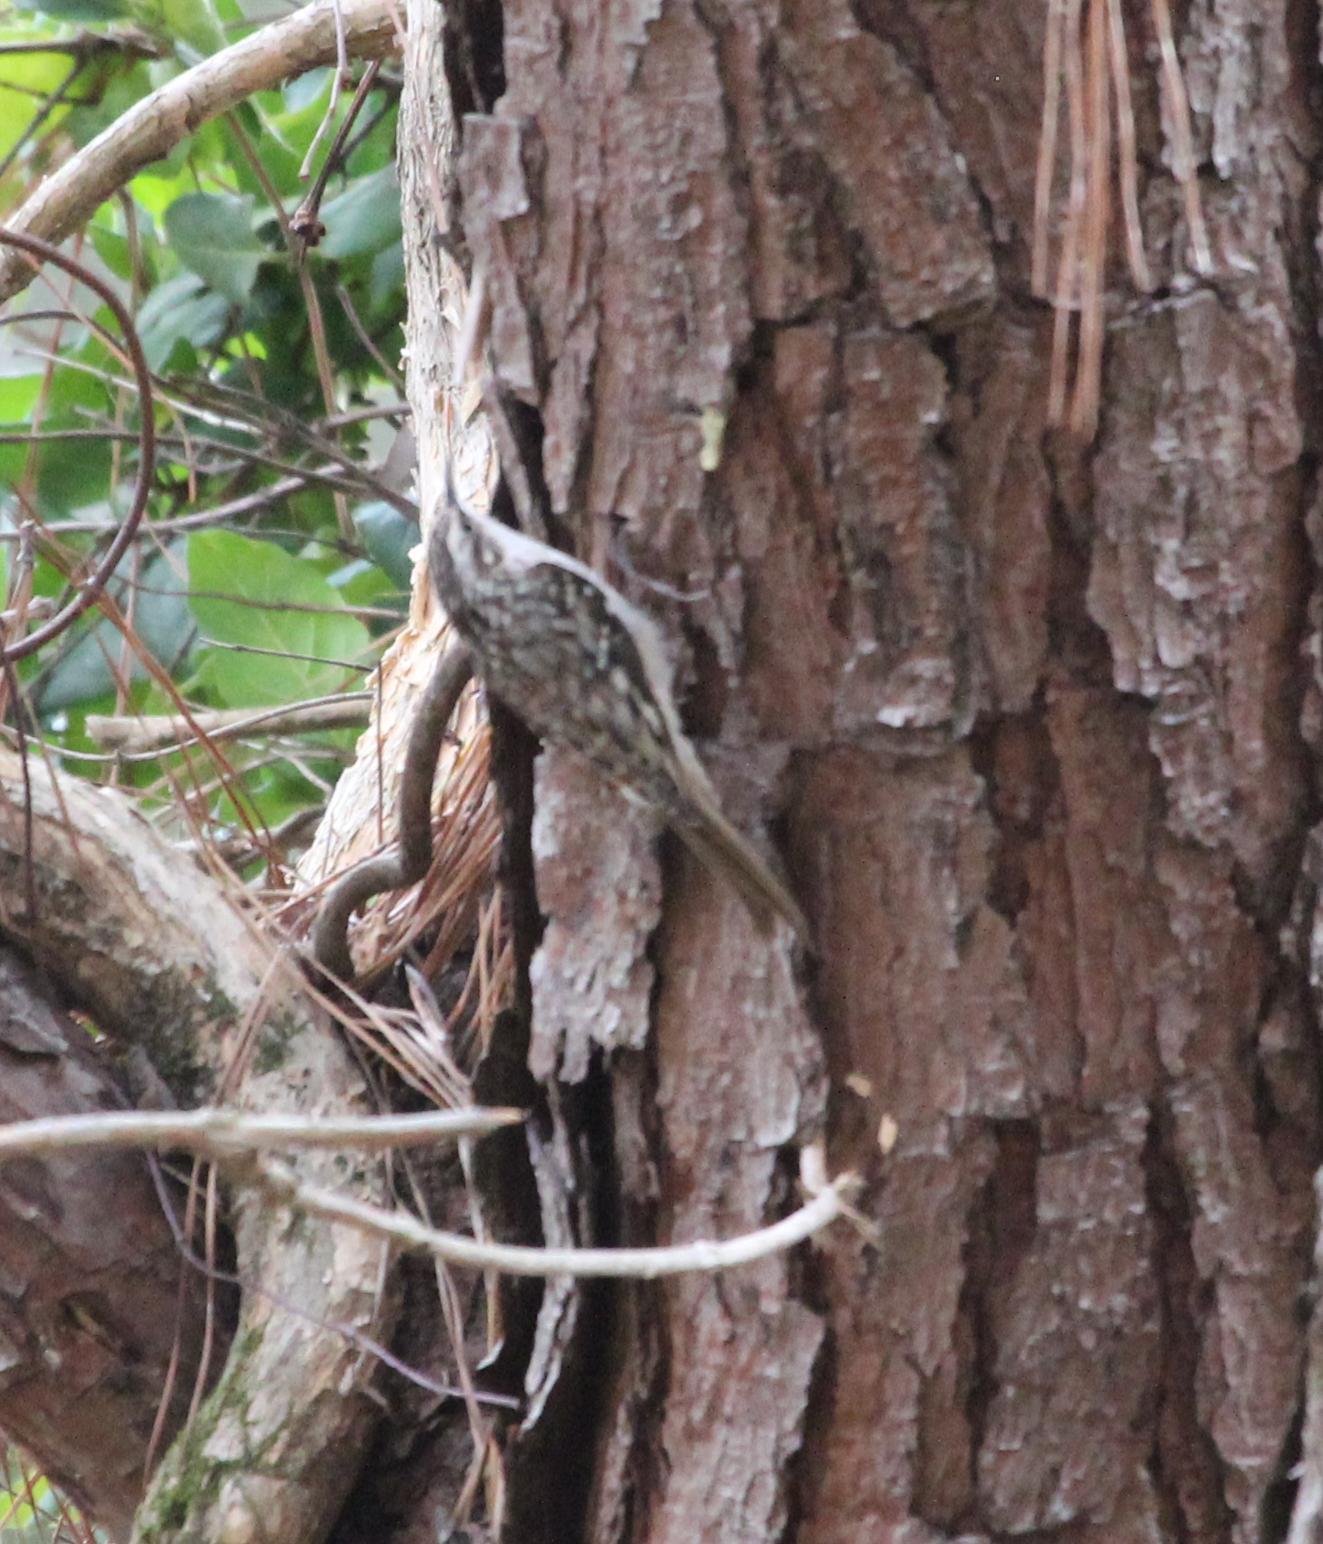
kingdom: Animalia
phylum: Chordata
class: Aves
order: Passeriformes
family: Certhiidae
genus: Certhia
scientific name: Certhia americana
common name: Brown creeper
